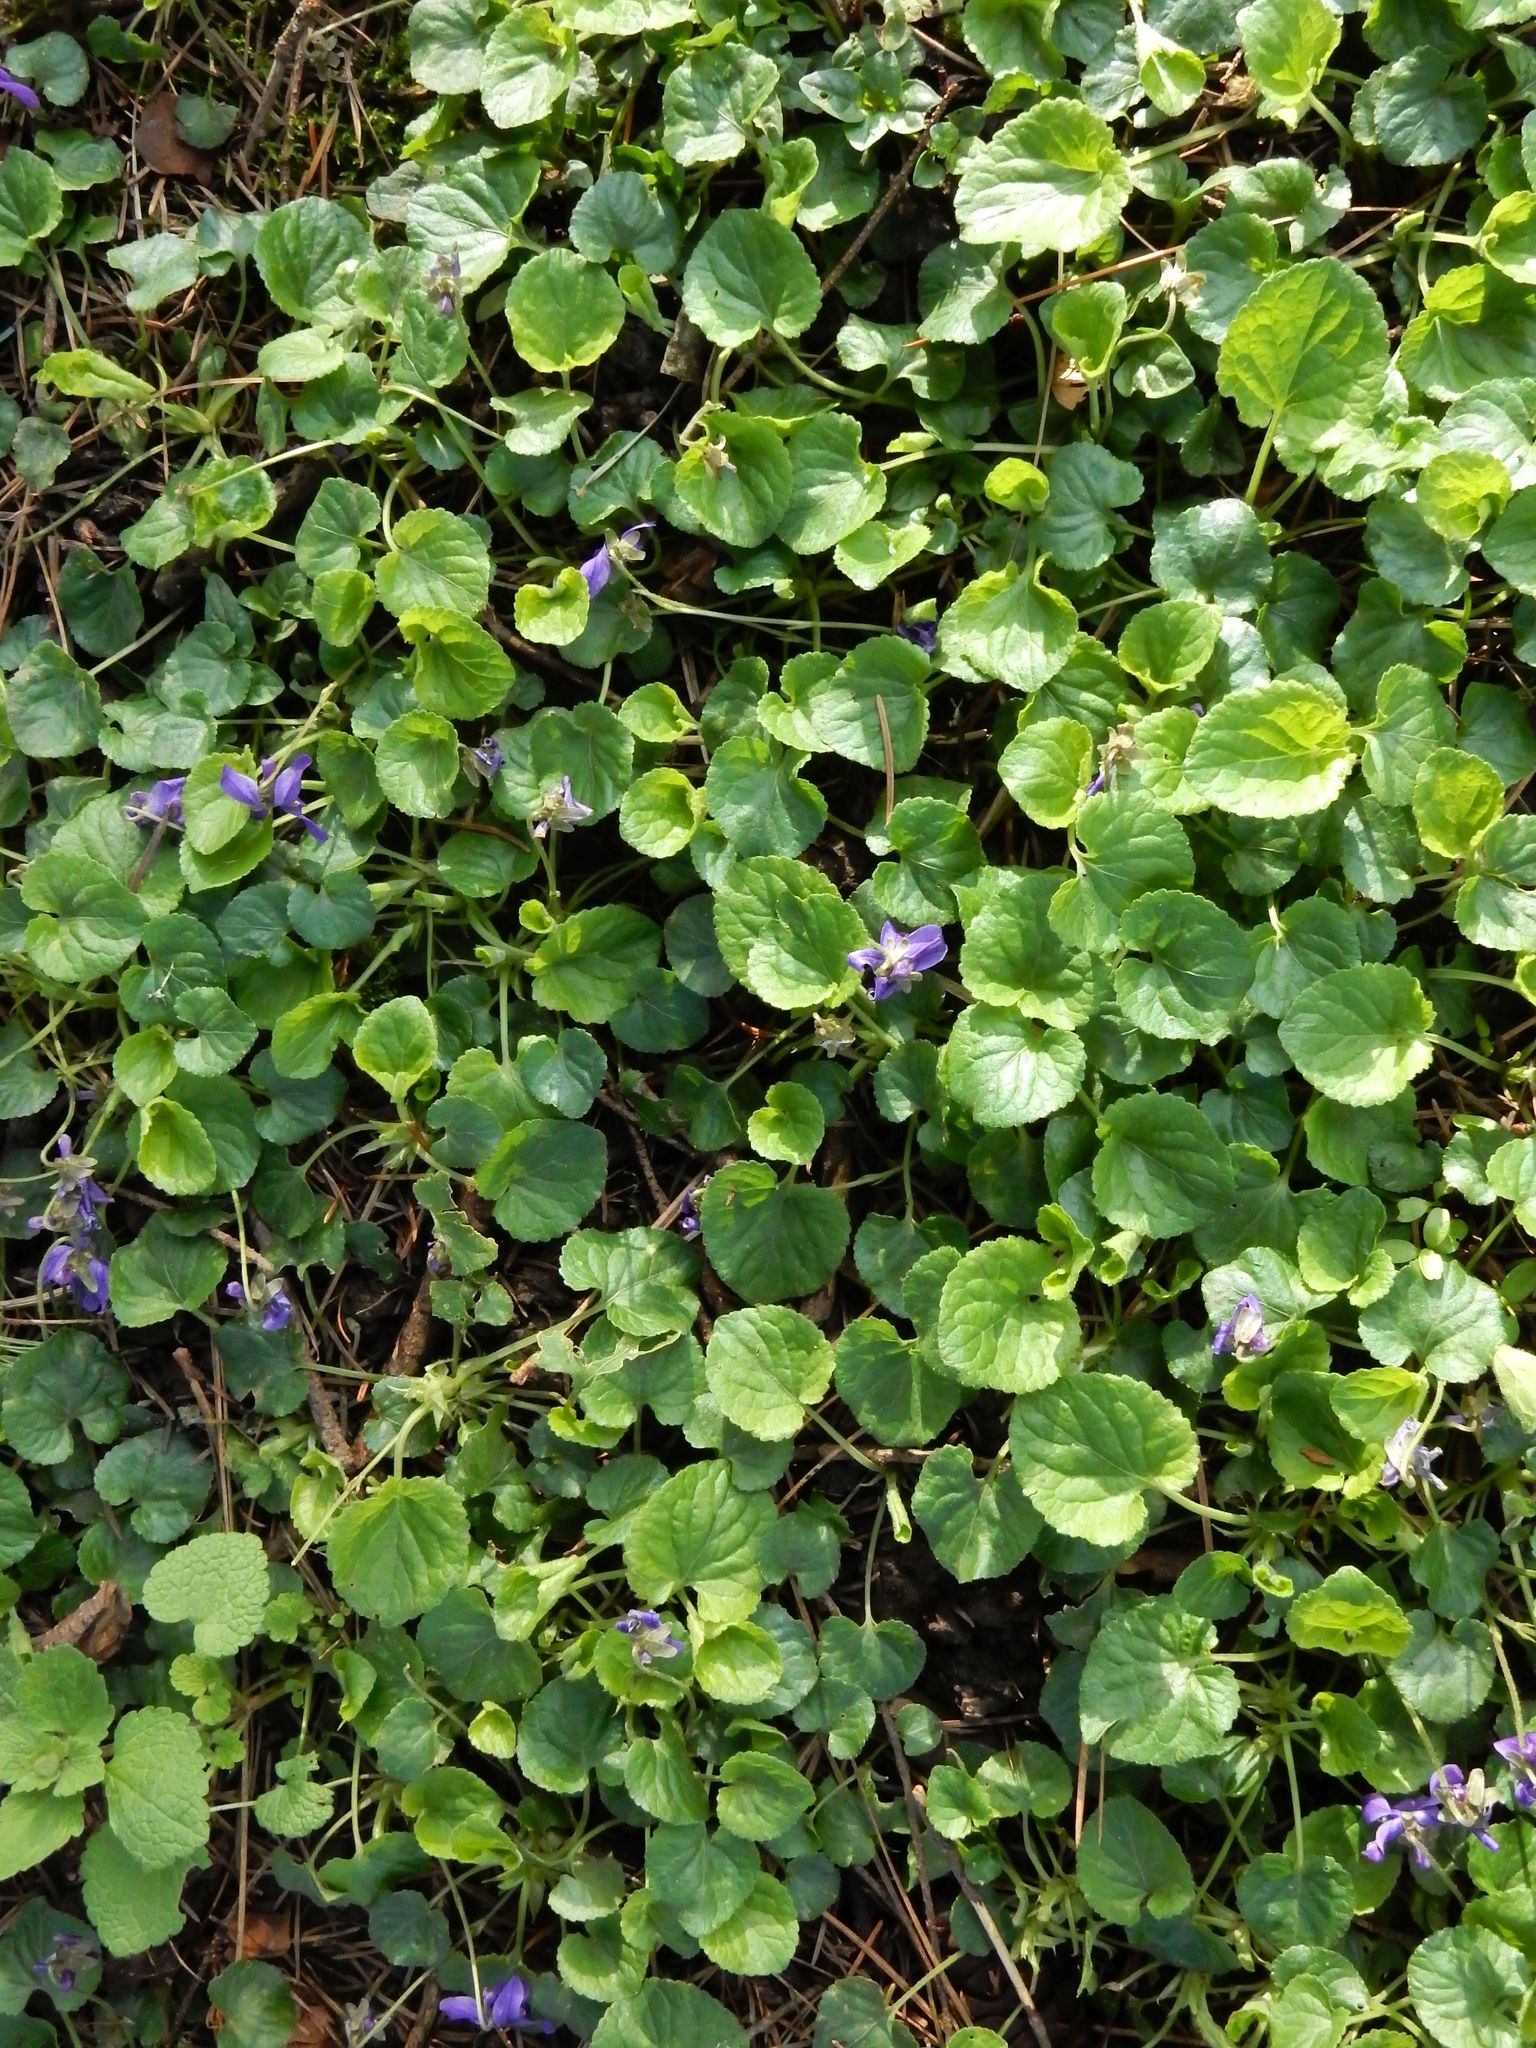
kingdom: Plantae
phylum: Tracheophyta
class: Magnoliopsida
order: Malpighiales
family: Violaceae
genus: Viola
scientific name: Viola odorata
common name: Sweet violet
